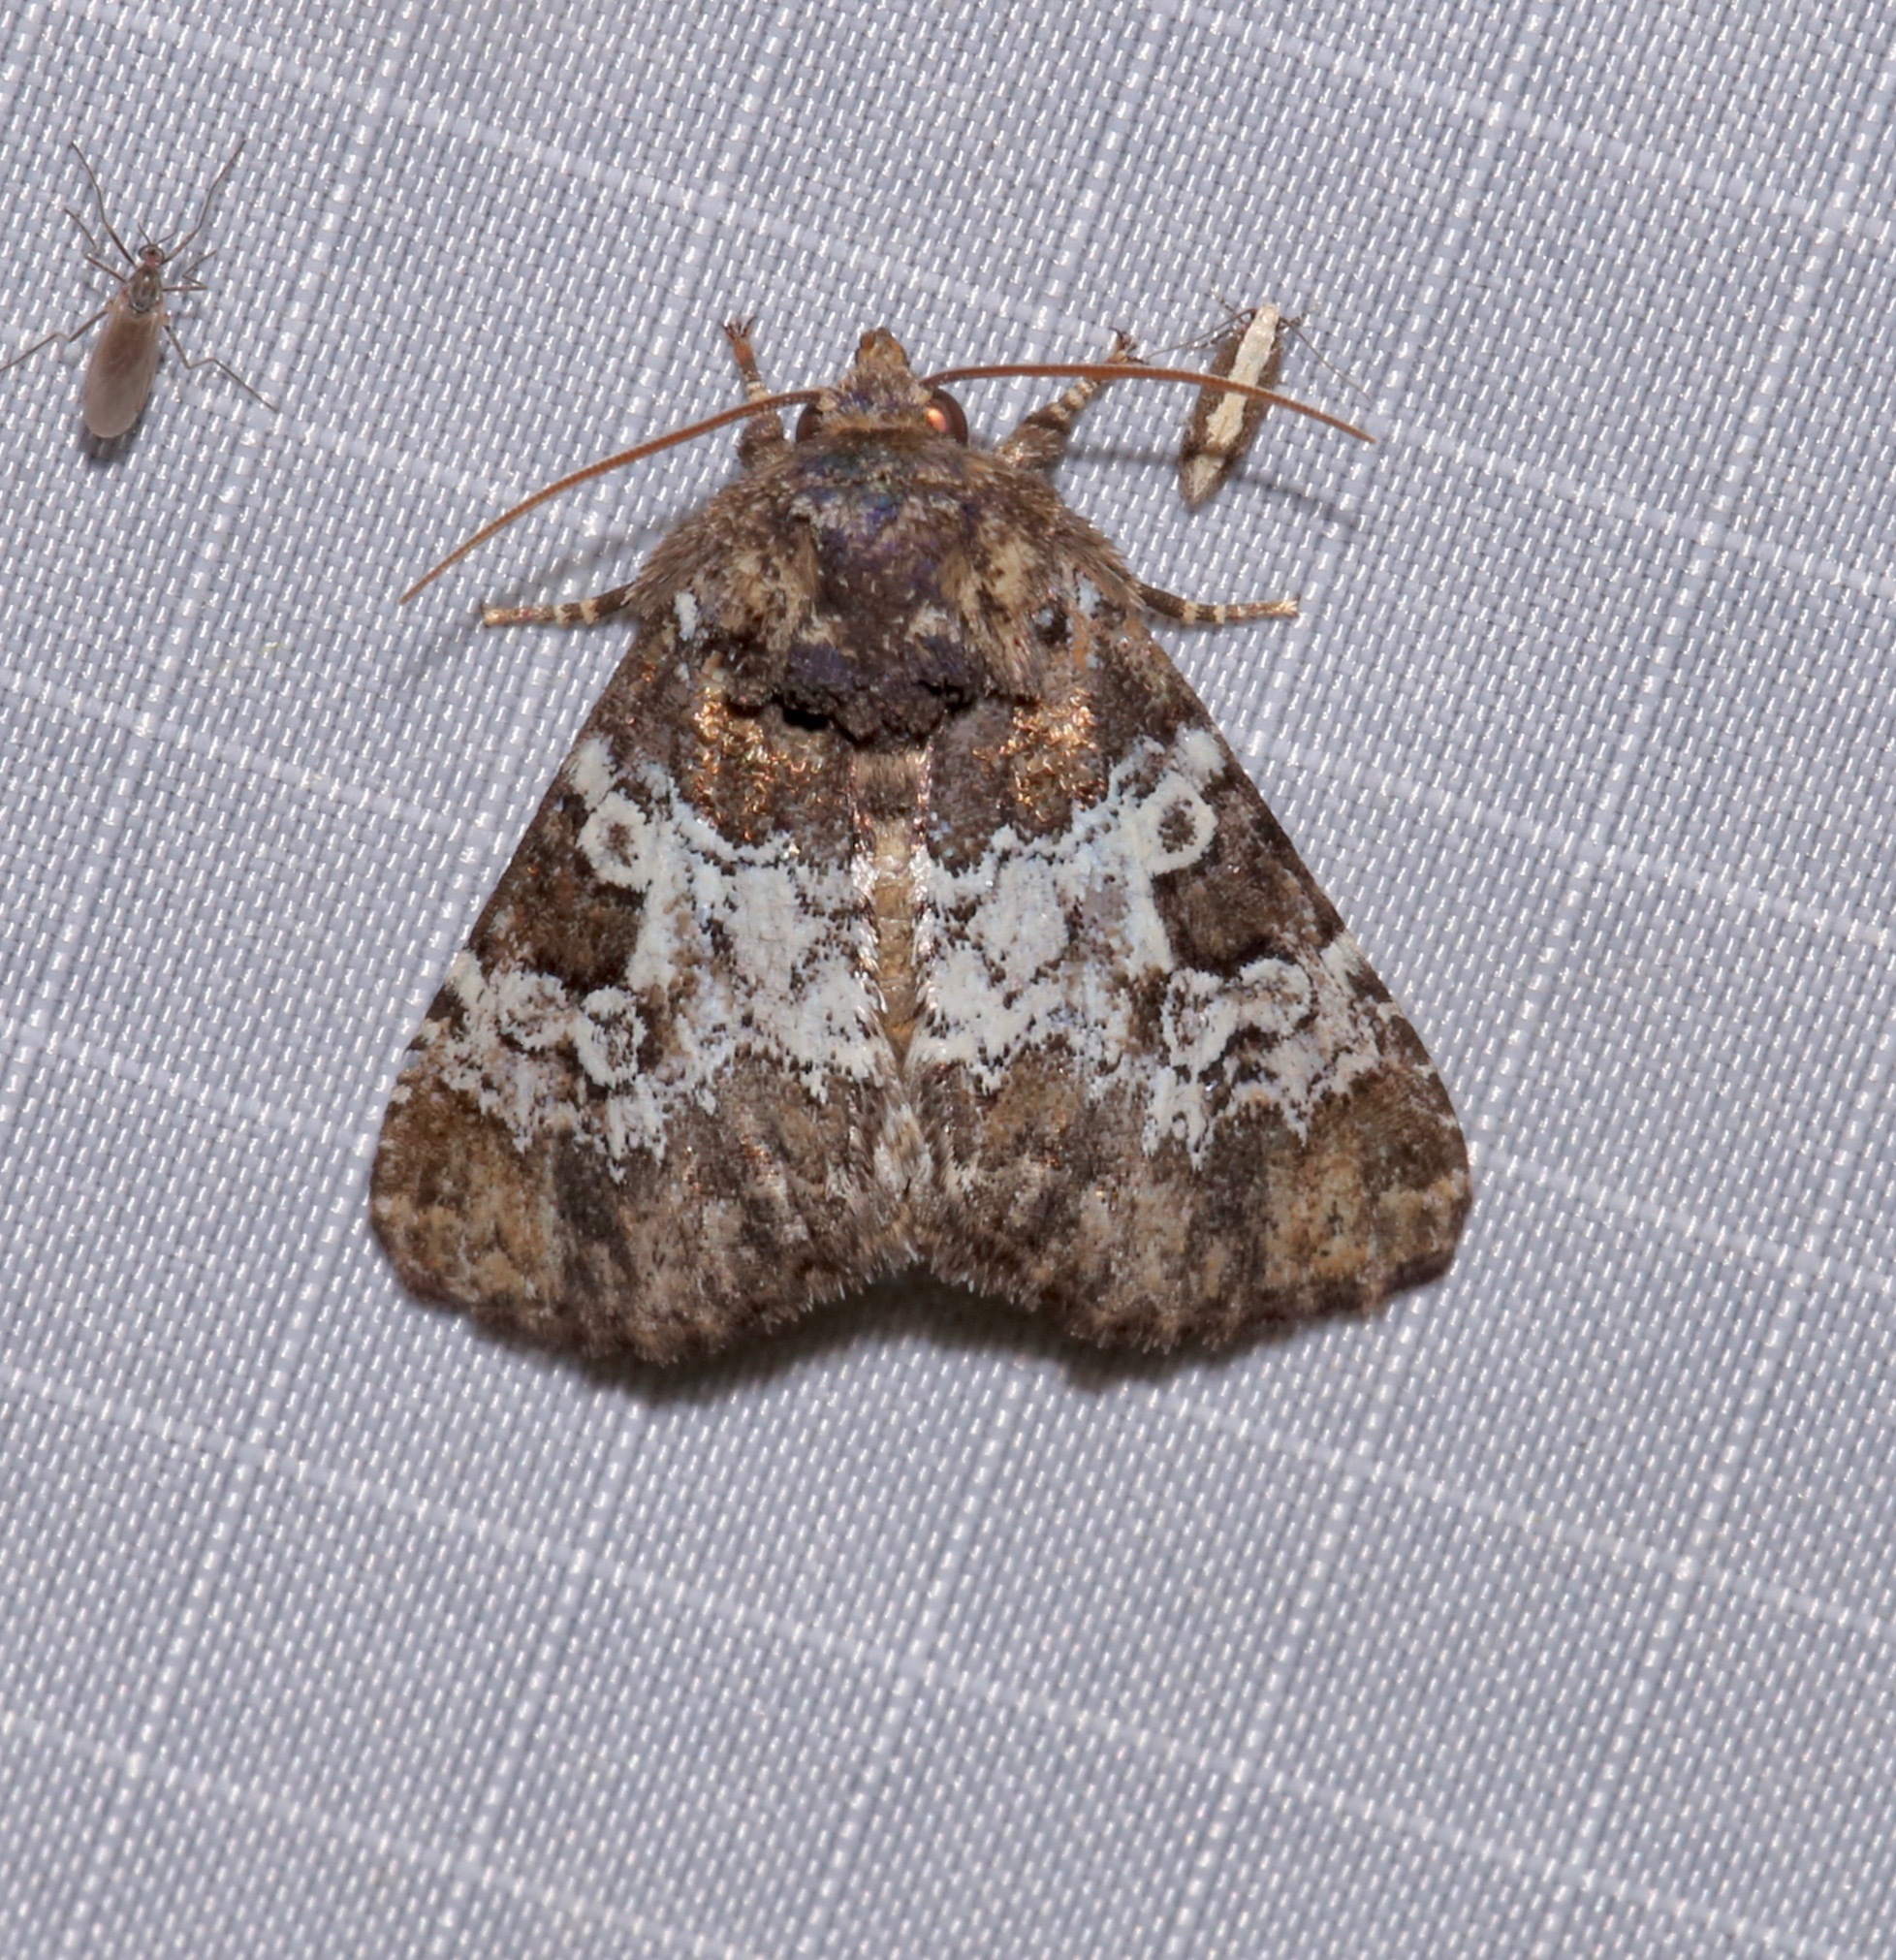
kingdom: Animalia
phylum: Arthropoda
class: Insecta
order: Lepidoptera
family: Noctuidae
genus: Euamiana
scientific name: Euamiana contrasta
